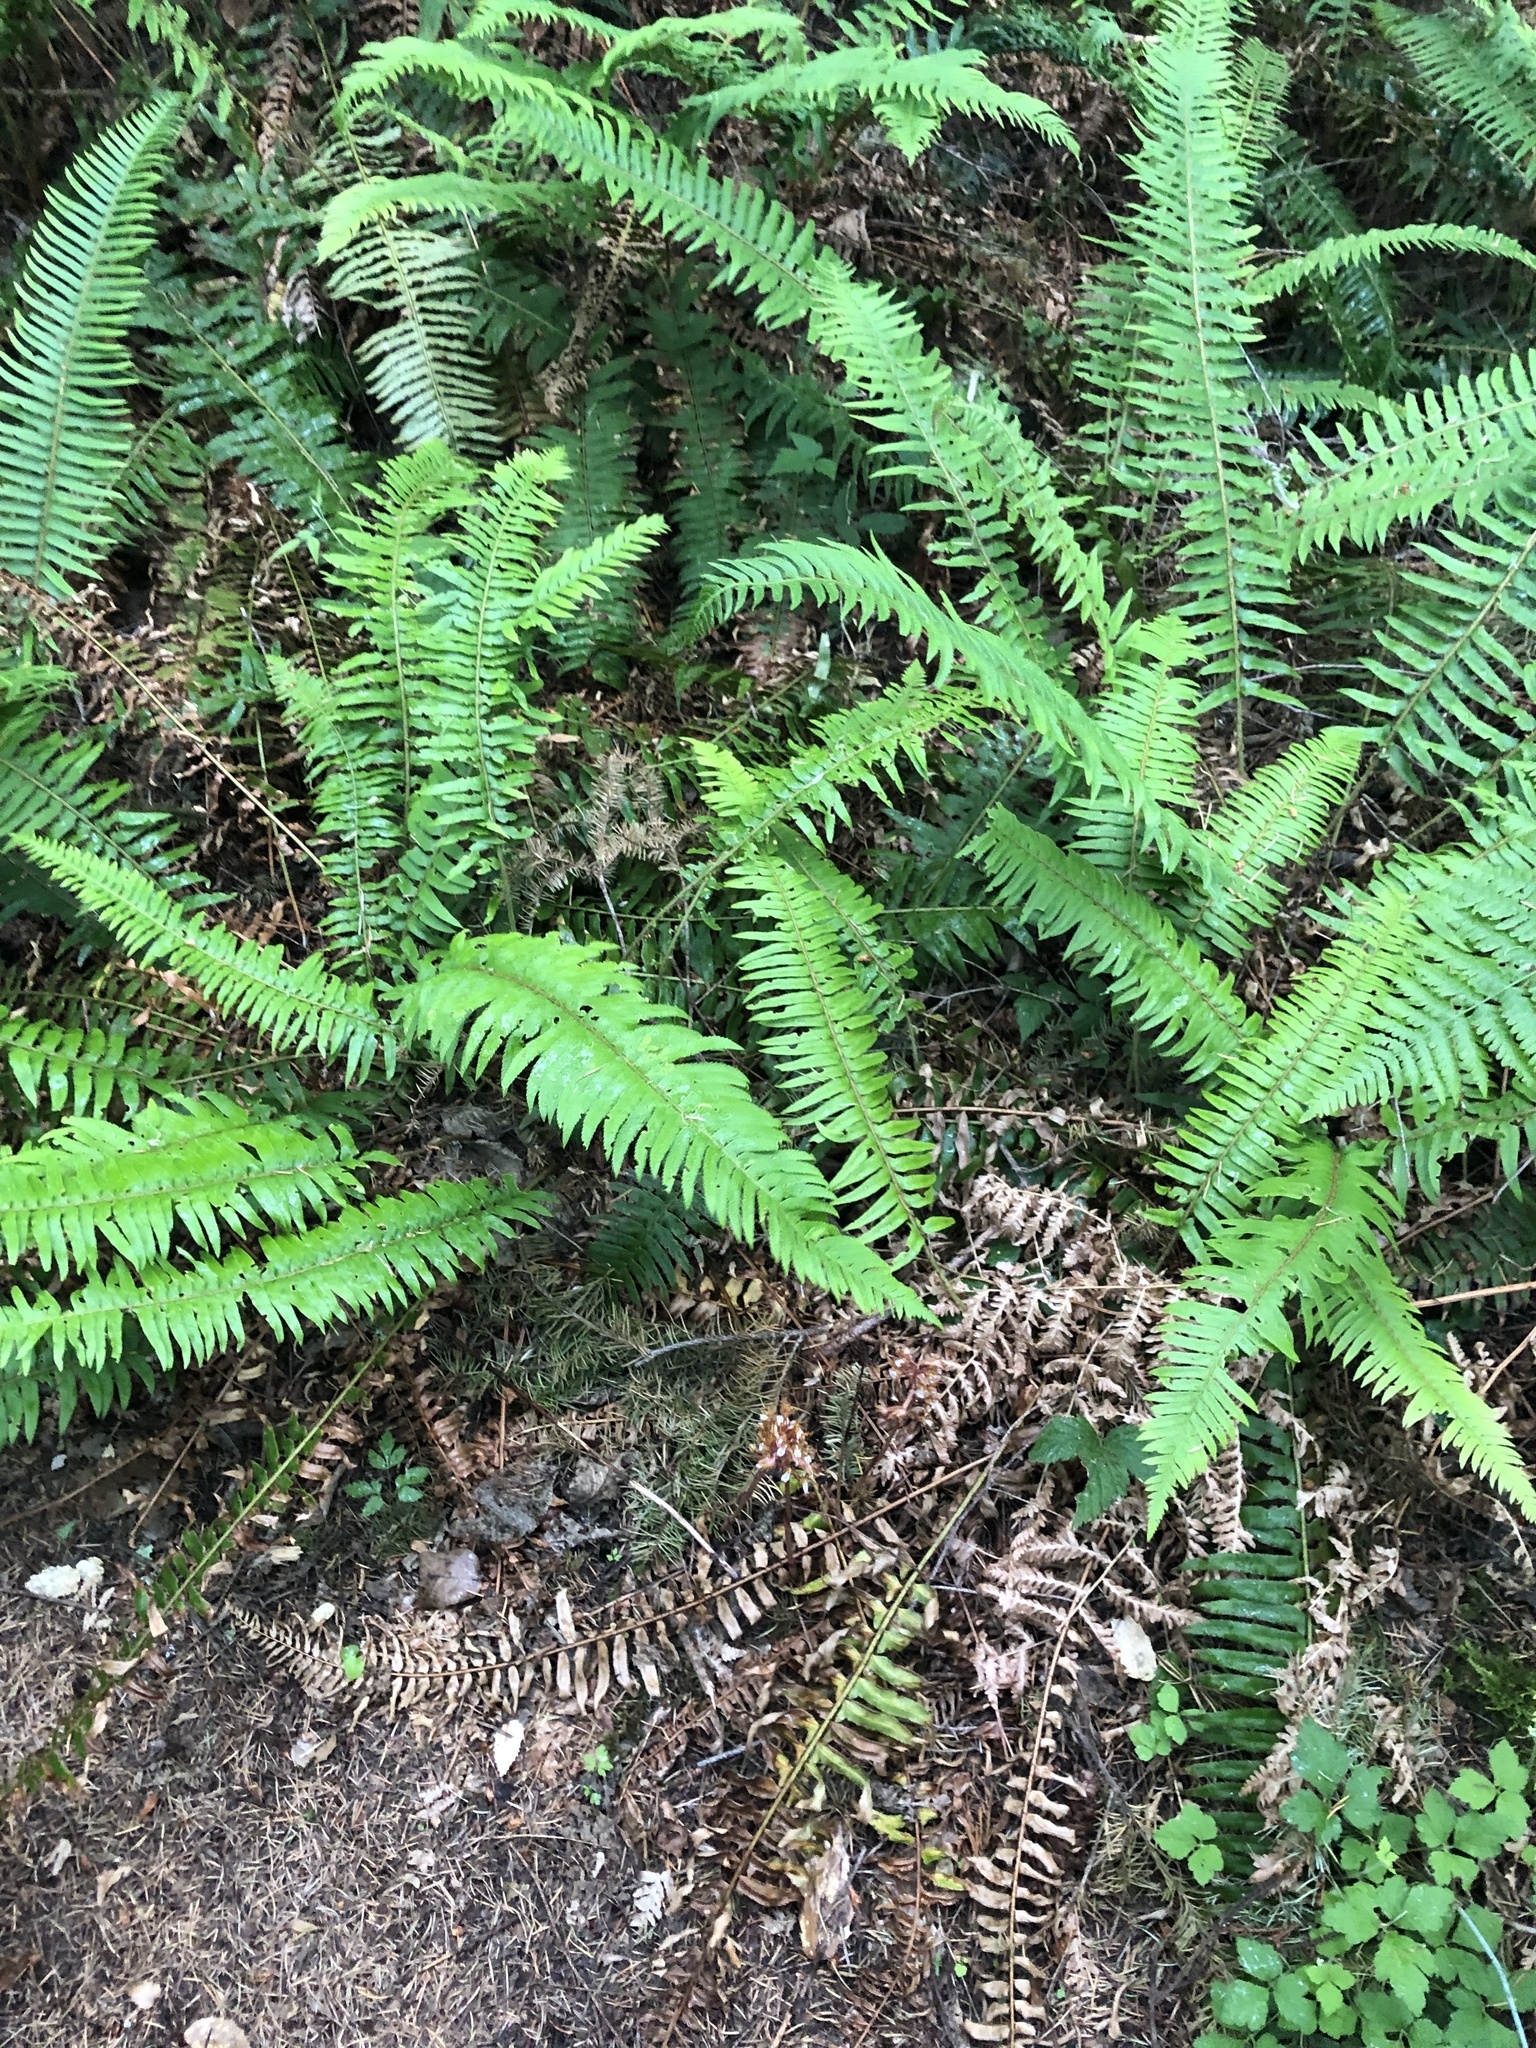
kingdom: Plantae
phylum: Tracheophyta
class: Polypodiopsida
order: Polypodiales
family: Dryopteridaceae
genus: Polystichum
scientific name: Polystichum munitum
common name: Western sword-fern
